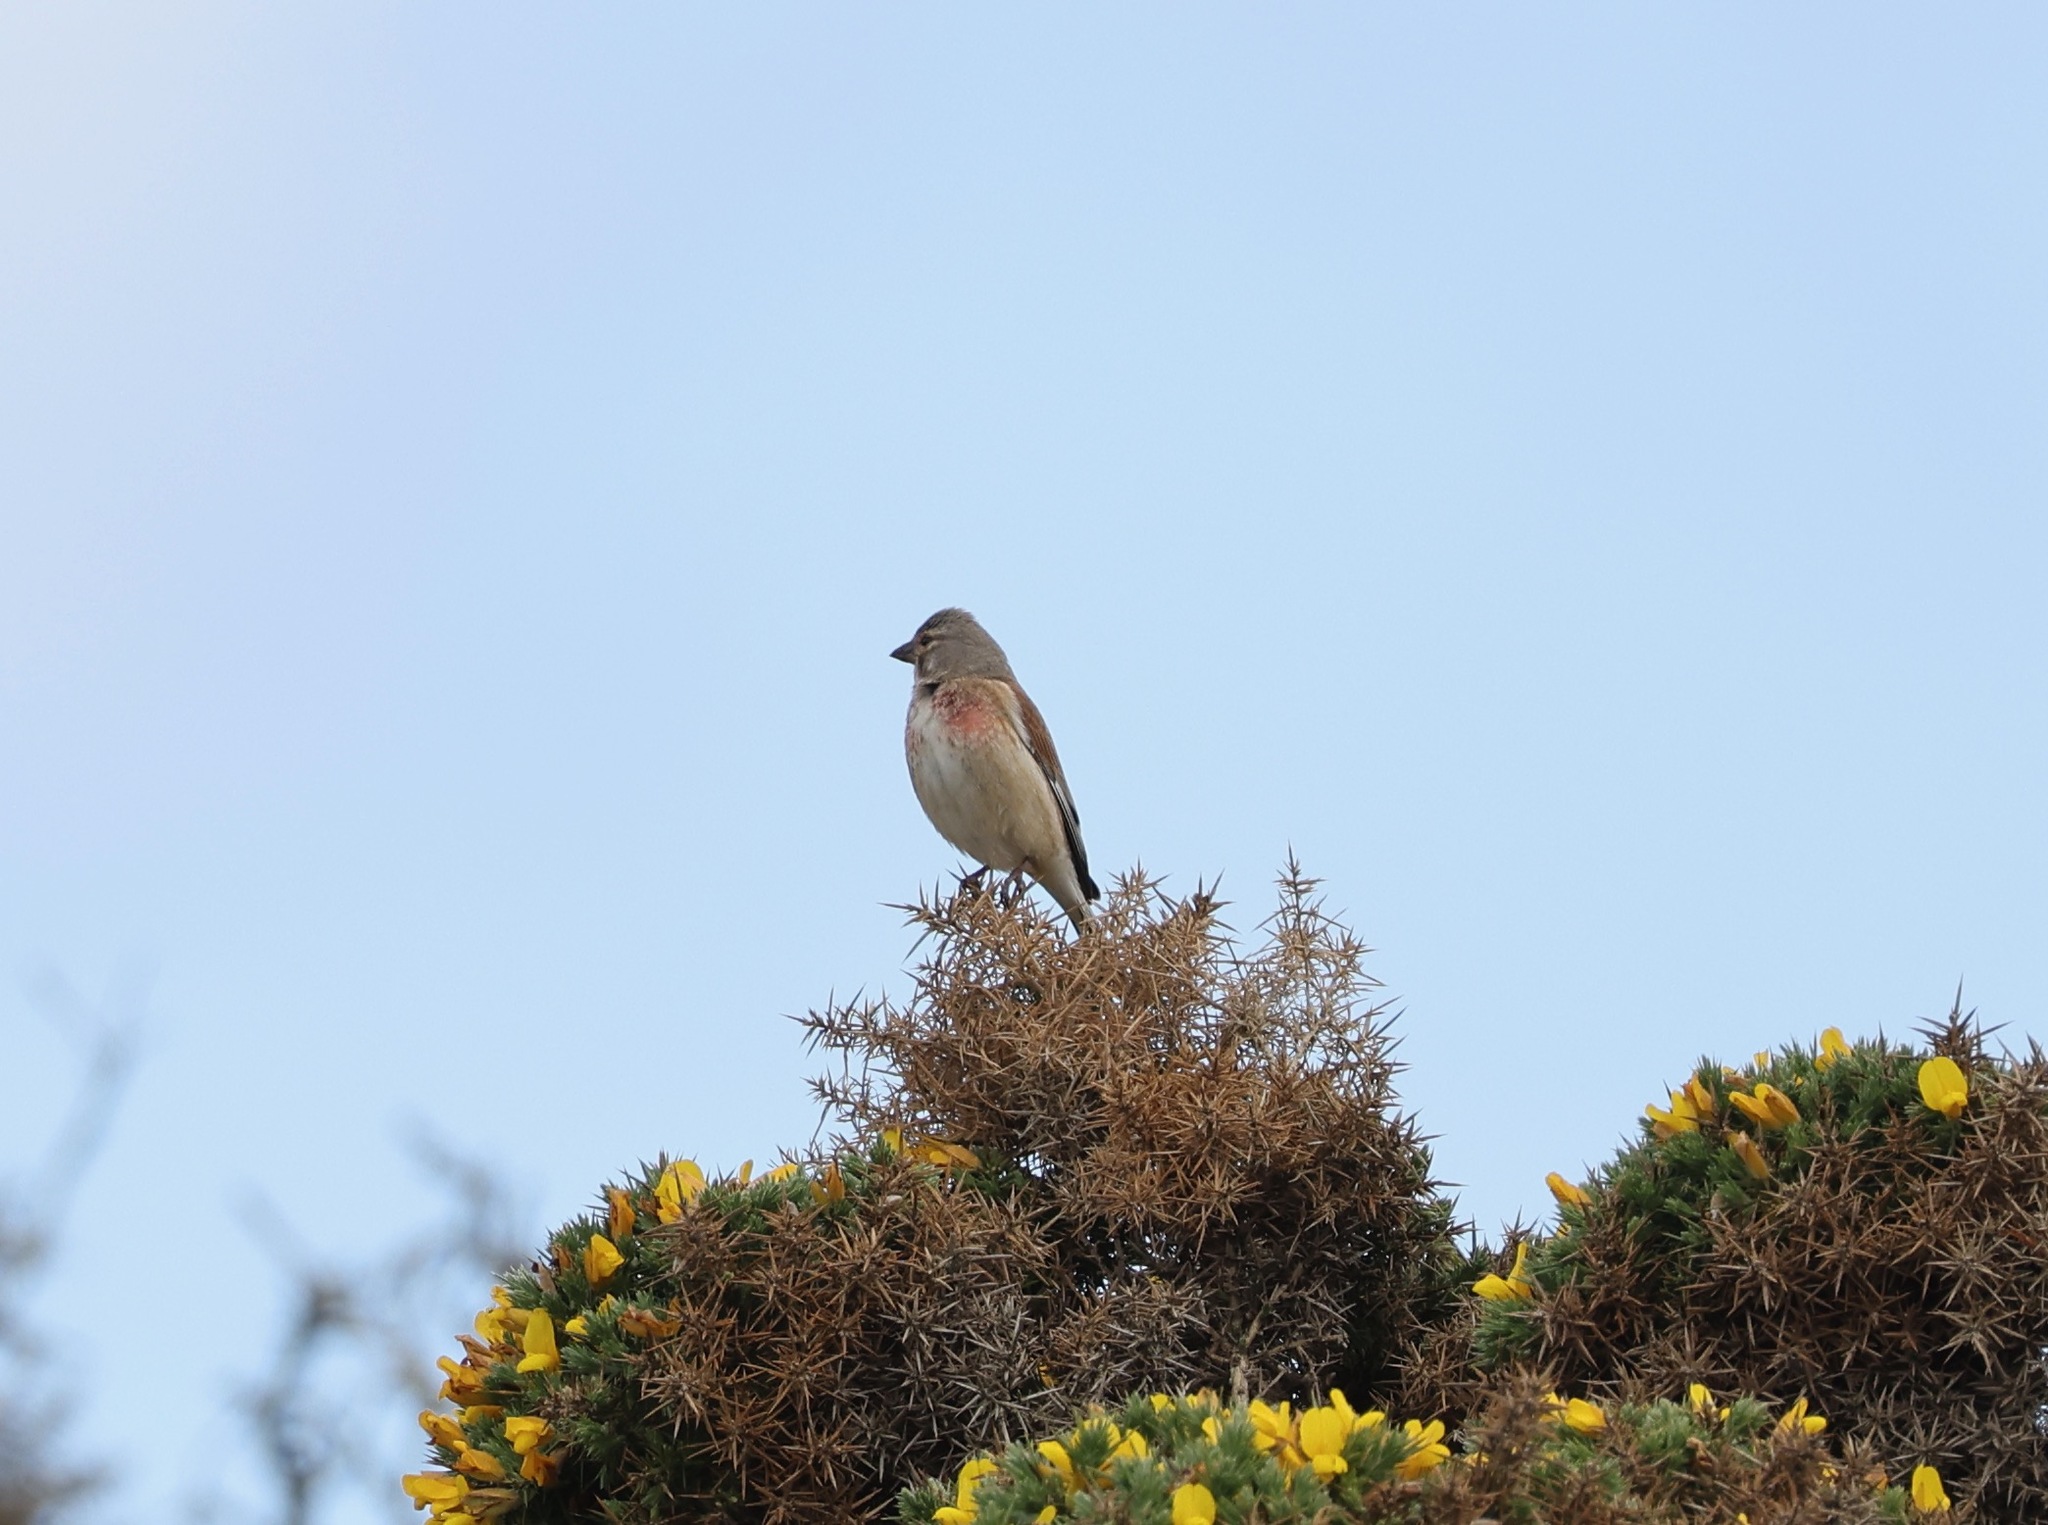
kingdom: Animalia
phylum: Chordata
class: Aves
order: Passeriformes
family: Fringillidae
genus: Linaria
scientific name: Linaria cannabina
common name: Common linnet
